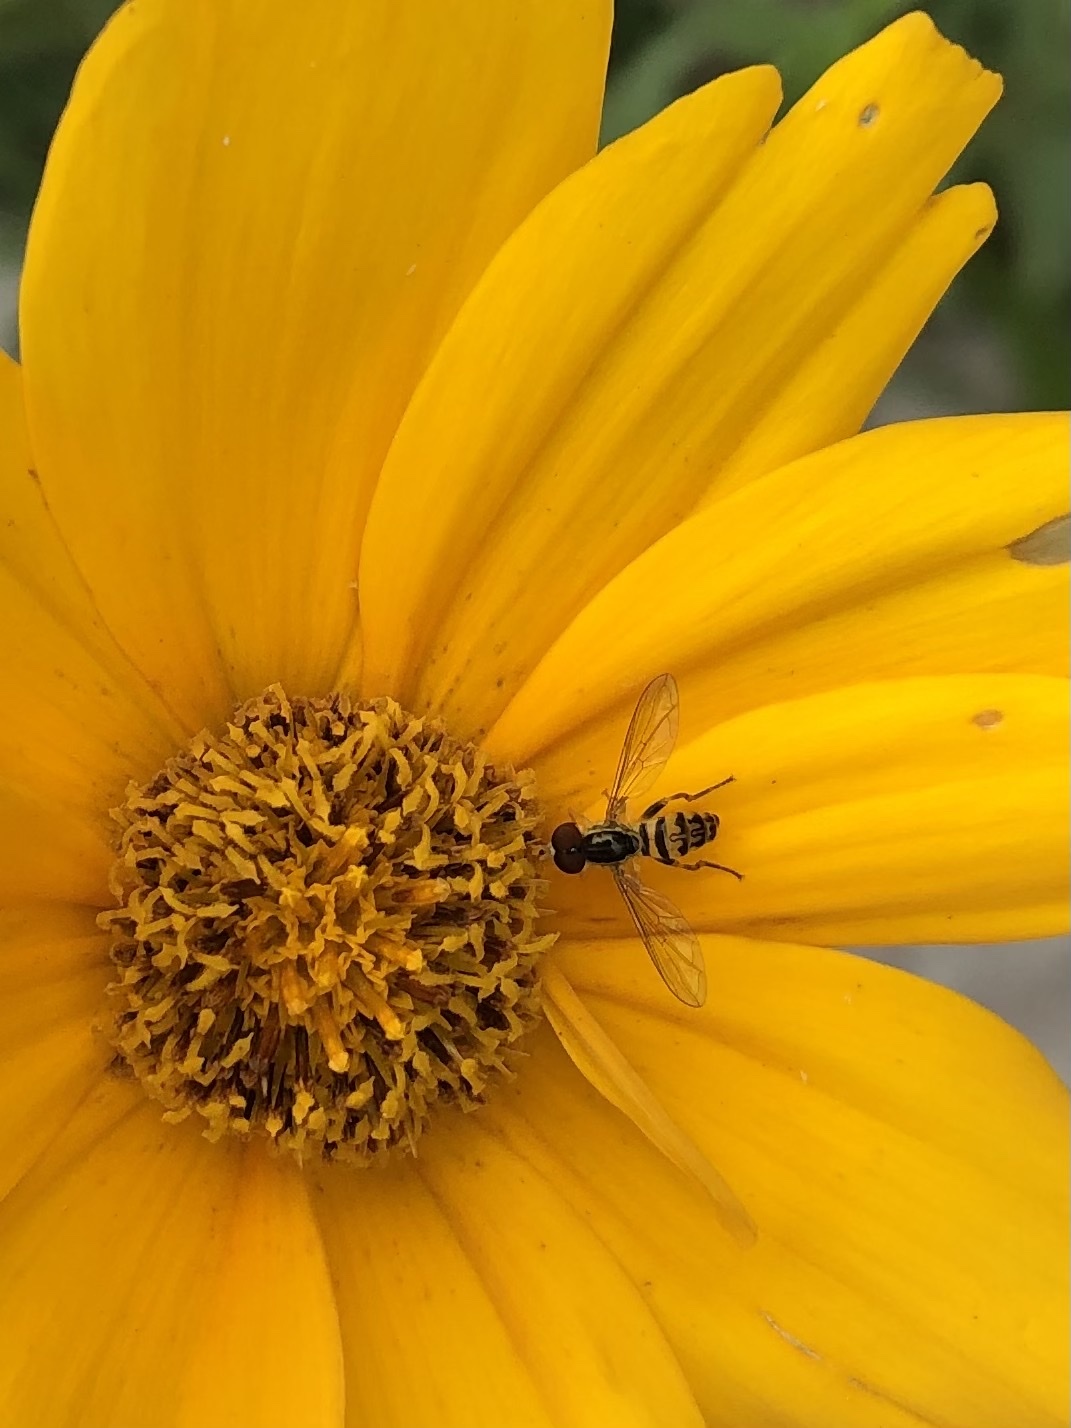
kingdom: Animalia
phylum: Arthropoda
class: Insecta
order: Diptera
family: Syrphidae
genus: Toxomerus
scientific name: Toxomerus geminatus
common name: Eastern calligrapher
